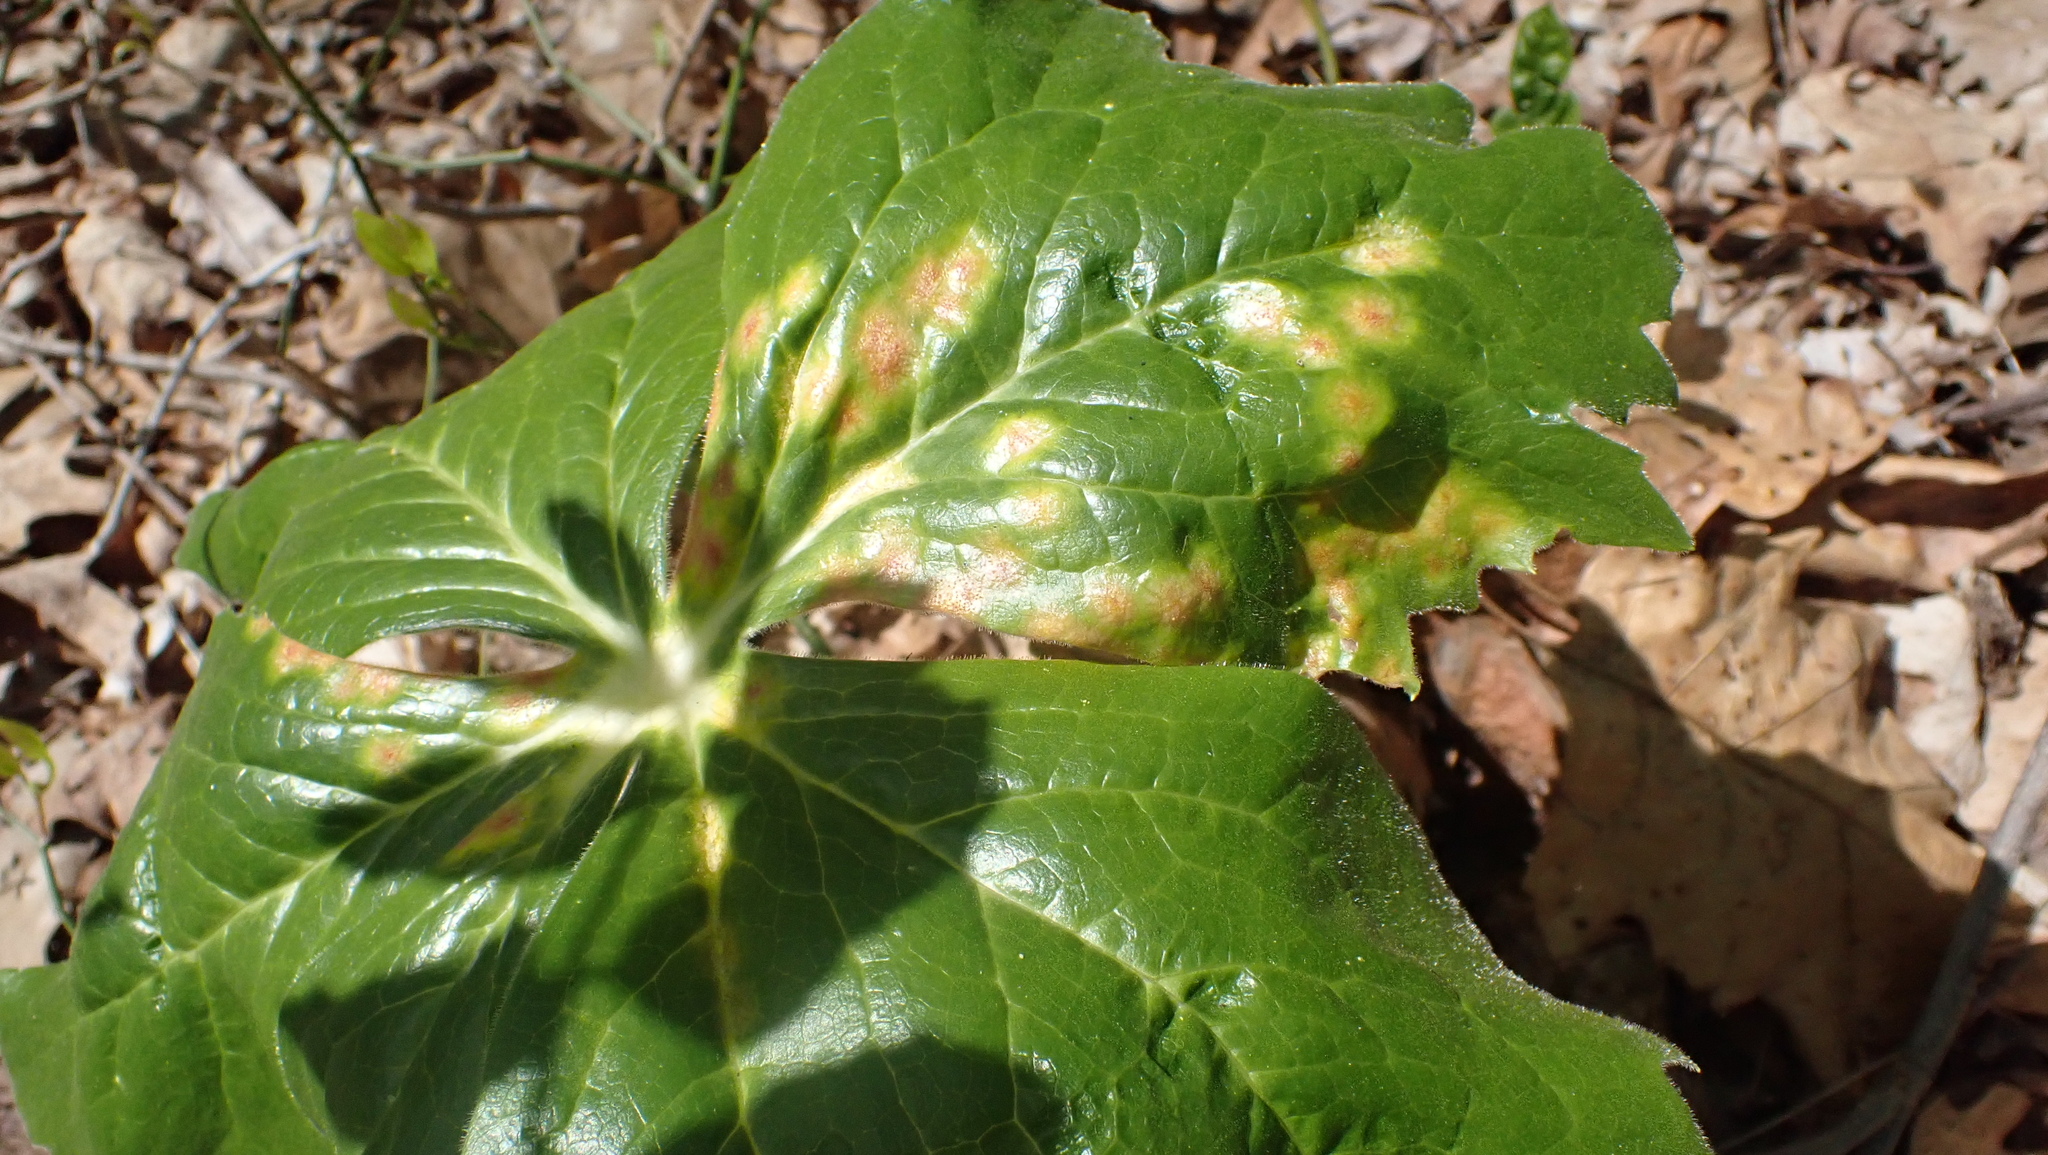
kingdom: Fungi
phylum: Basidiomycota
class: Pucciniomycetes
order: Pucciniales
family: Pucciniaceae
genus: Puccinia
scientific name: Puccinia podophylli
